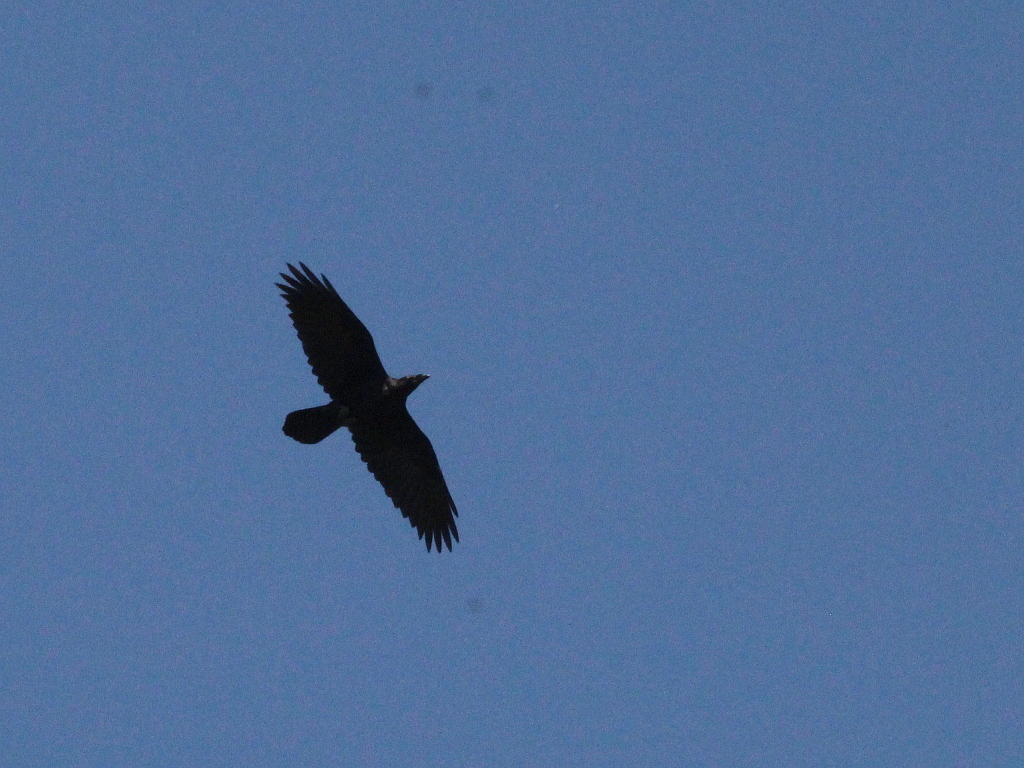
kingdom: Animalia
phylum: Chordata
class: Aves
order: Passeriformes
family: Corvidae
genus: Corvus
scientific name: Corvus corax
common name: Common raven
